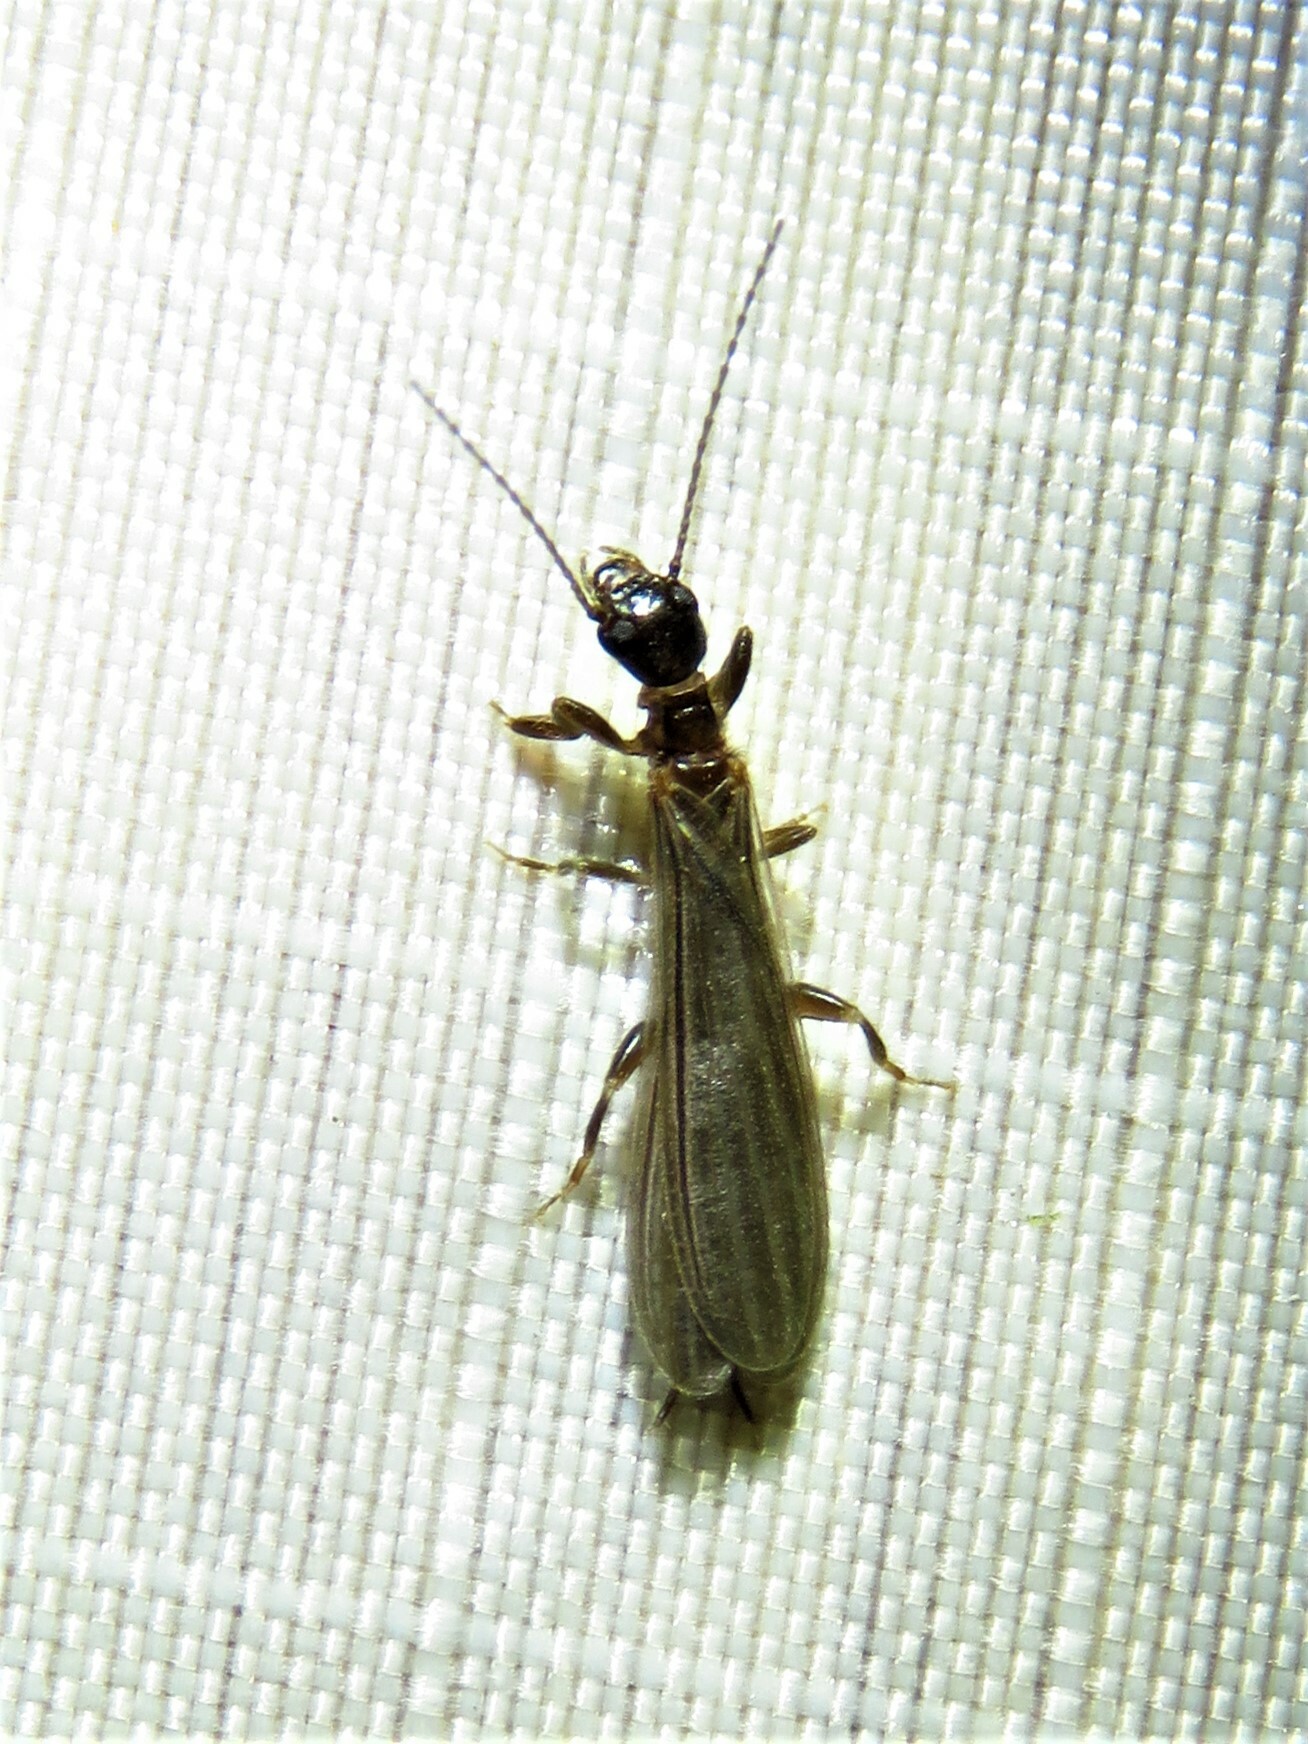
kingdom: Animalia
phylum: Arthropoda
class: Insecta
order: Embioptera
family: Oligotomidae
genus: Oligotoma
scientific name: Oligotoma nigra
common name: Black webspinner
